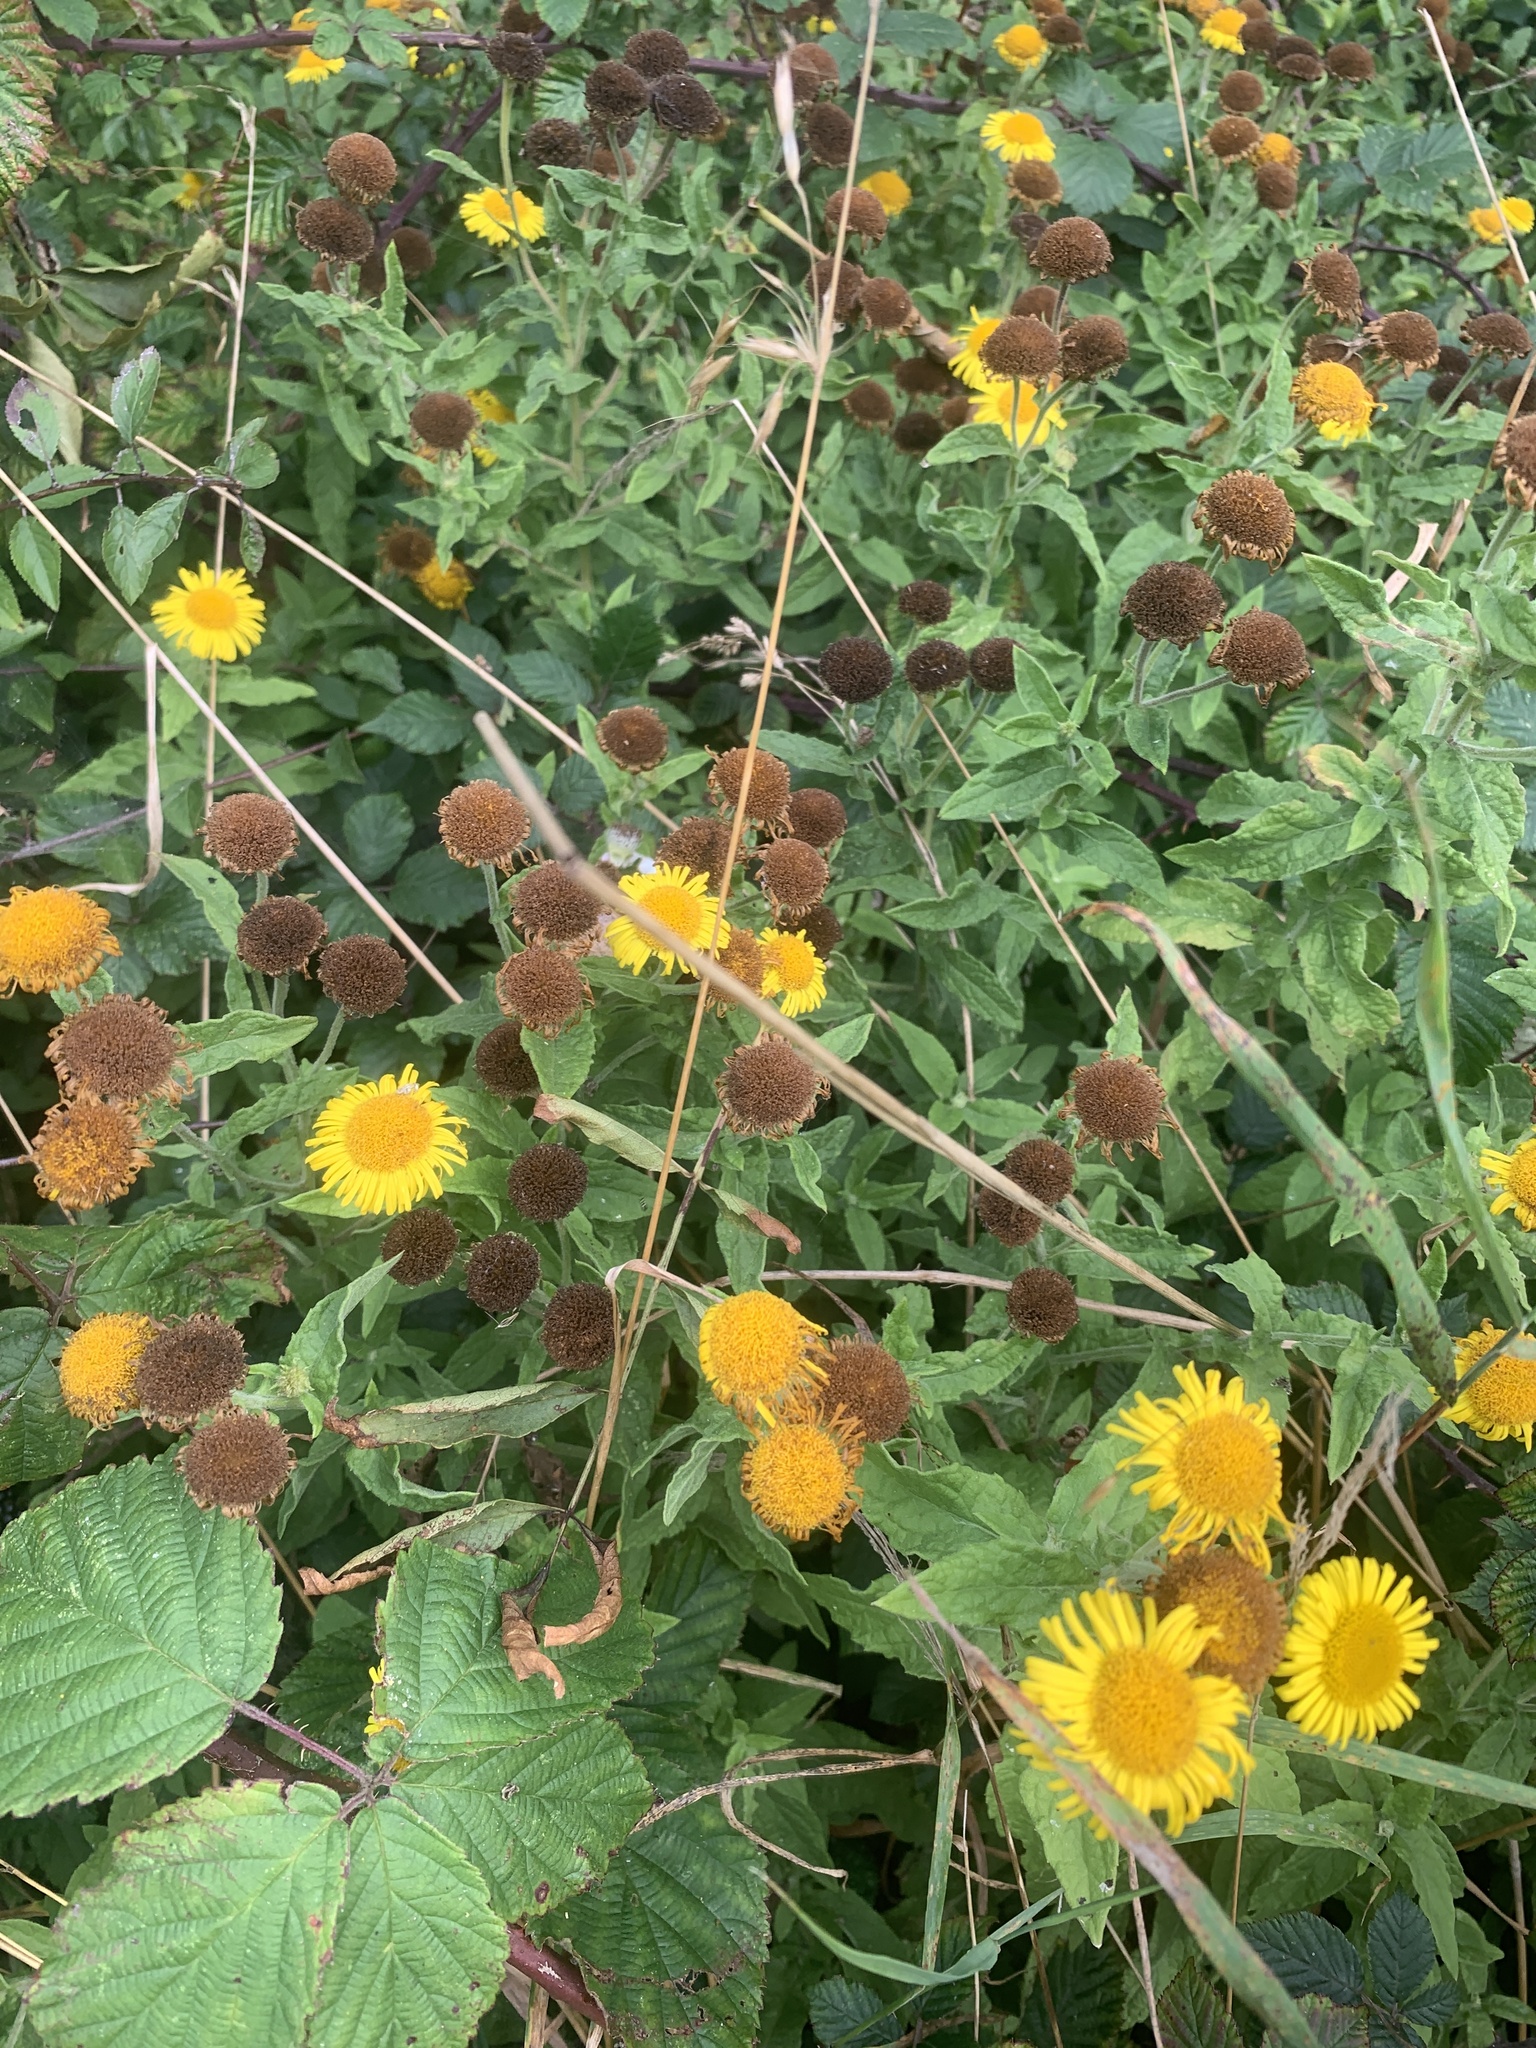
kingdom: Plantae
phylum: Tracheophyta
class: Magnoliopsida
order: Asterales
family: Asteraceae
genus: Pulicaria
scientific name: Pulicaria dysenterica
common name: Common fleabane
